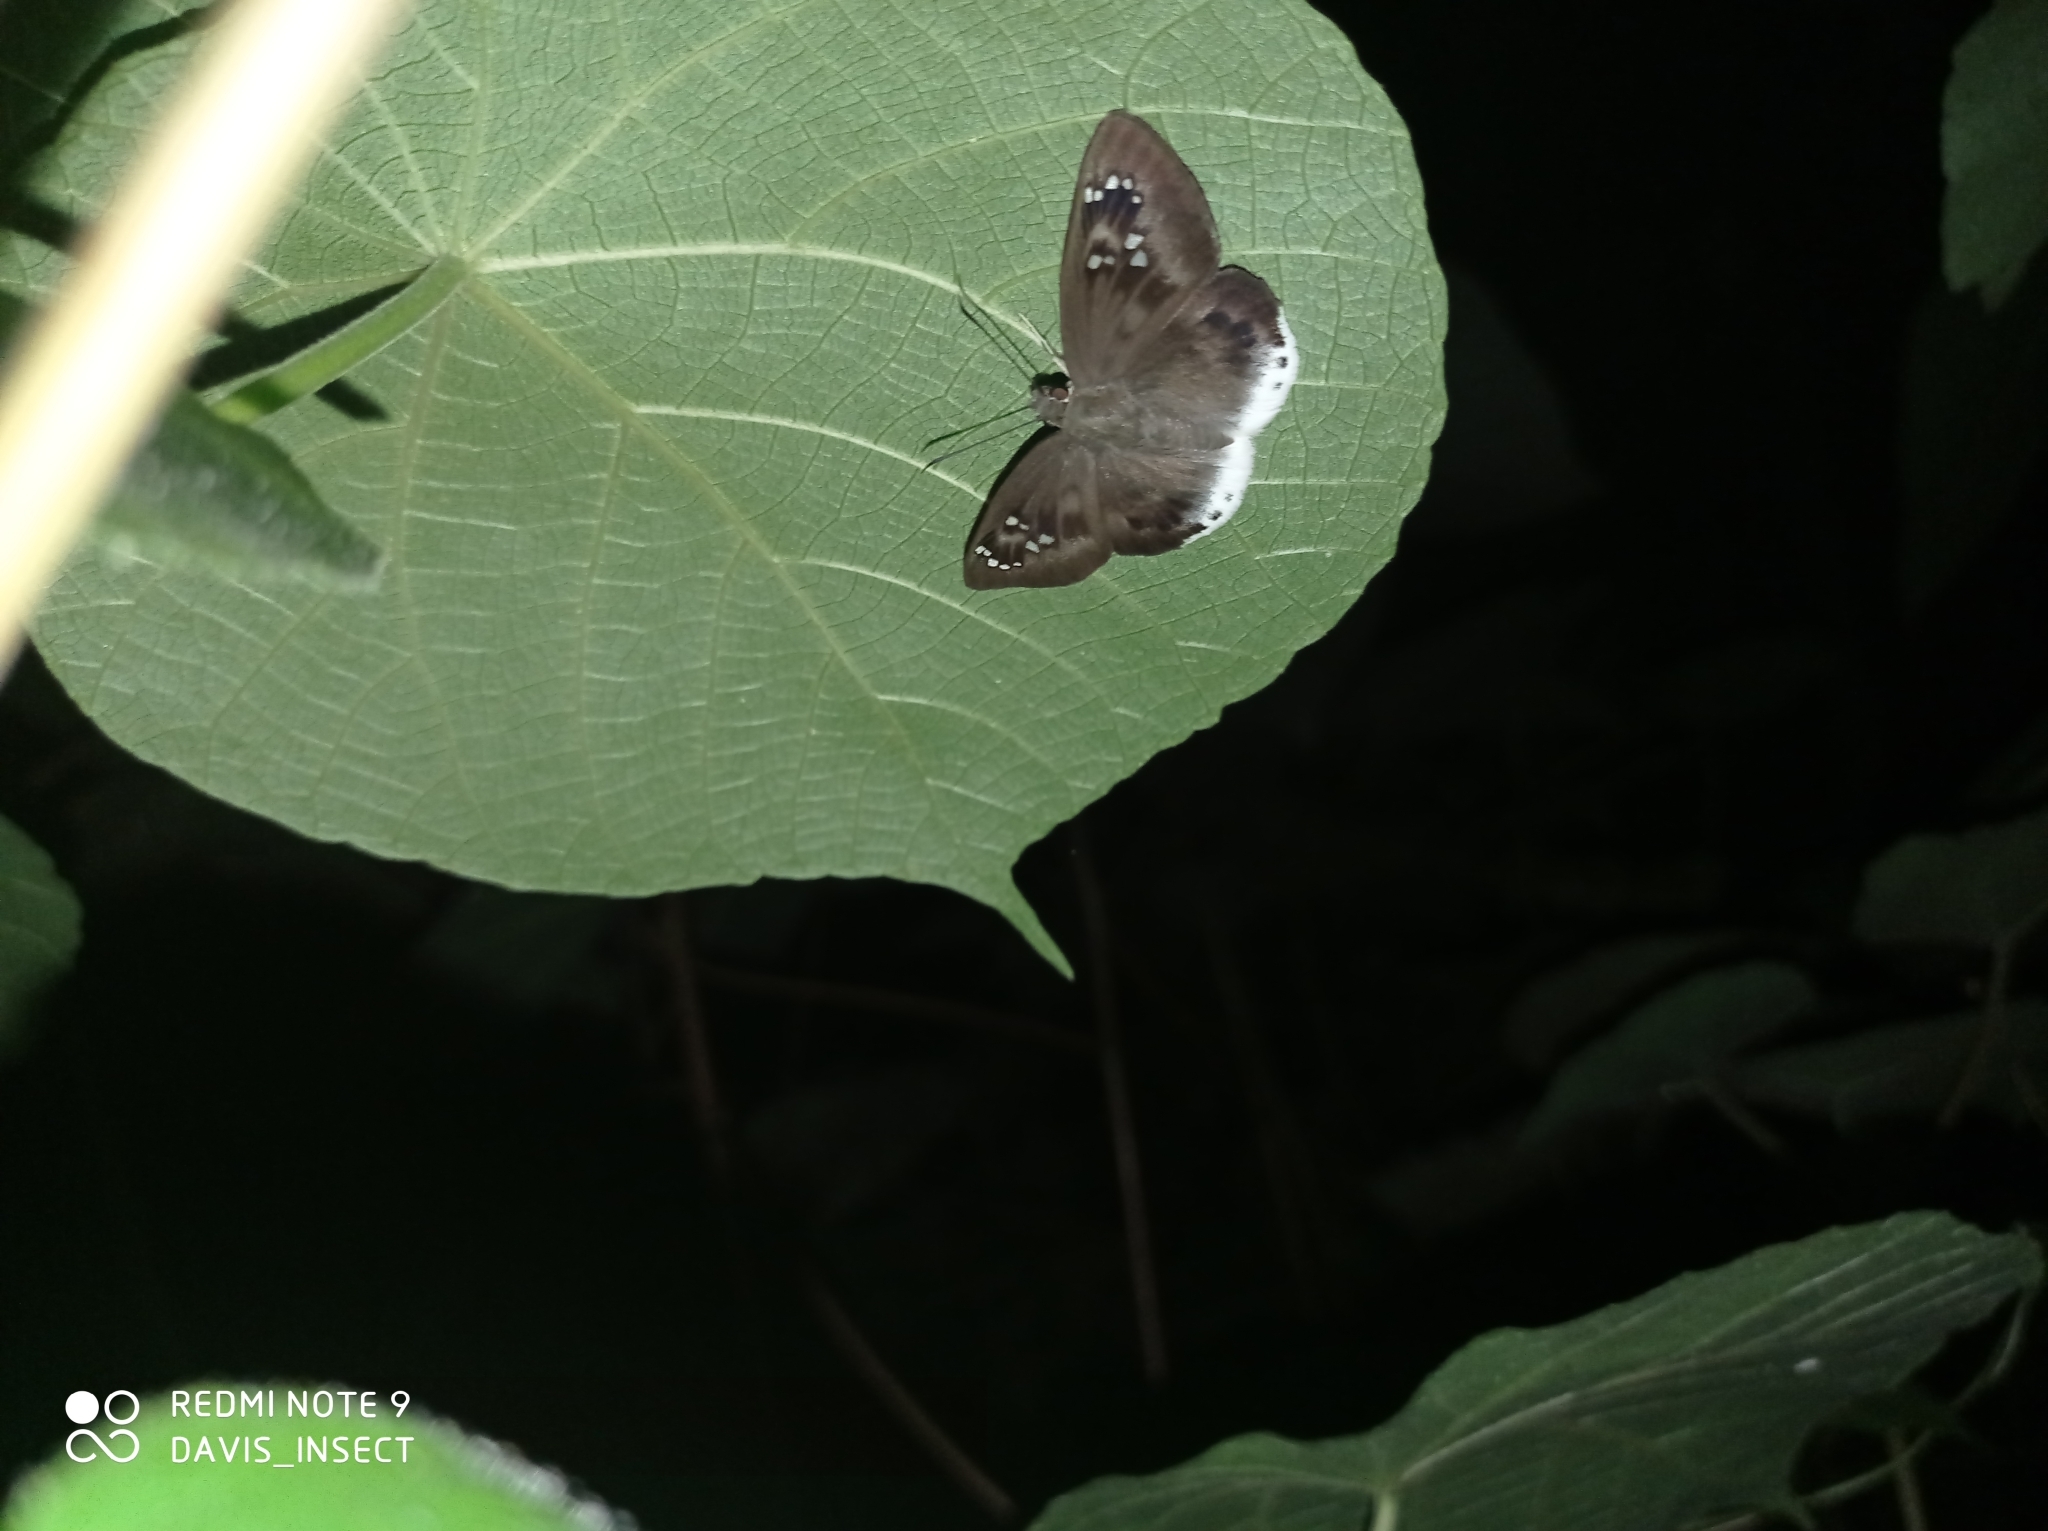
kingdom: Animalia
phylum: Arthropoda
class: Insecta
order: Lepidoptera
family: Hesperiidae
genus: Tagiades
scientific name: Tagiades japetus
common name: Pied flat
